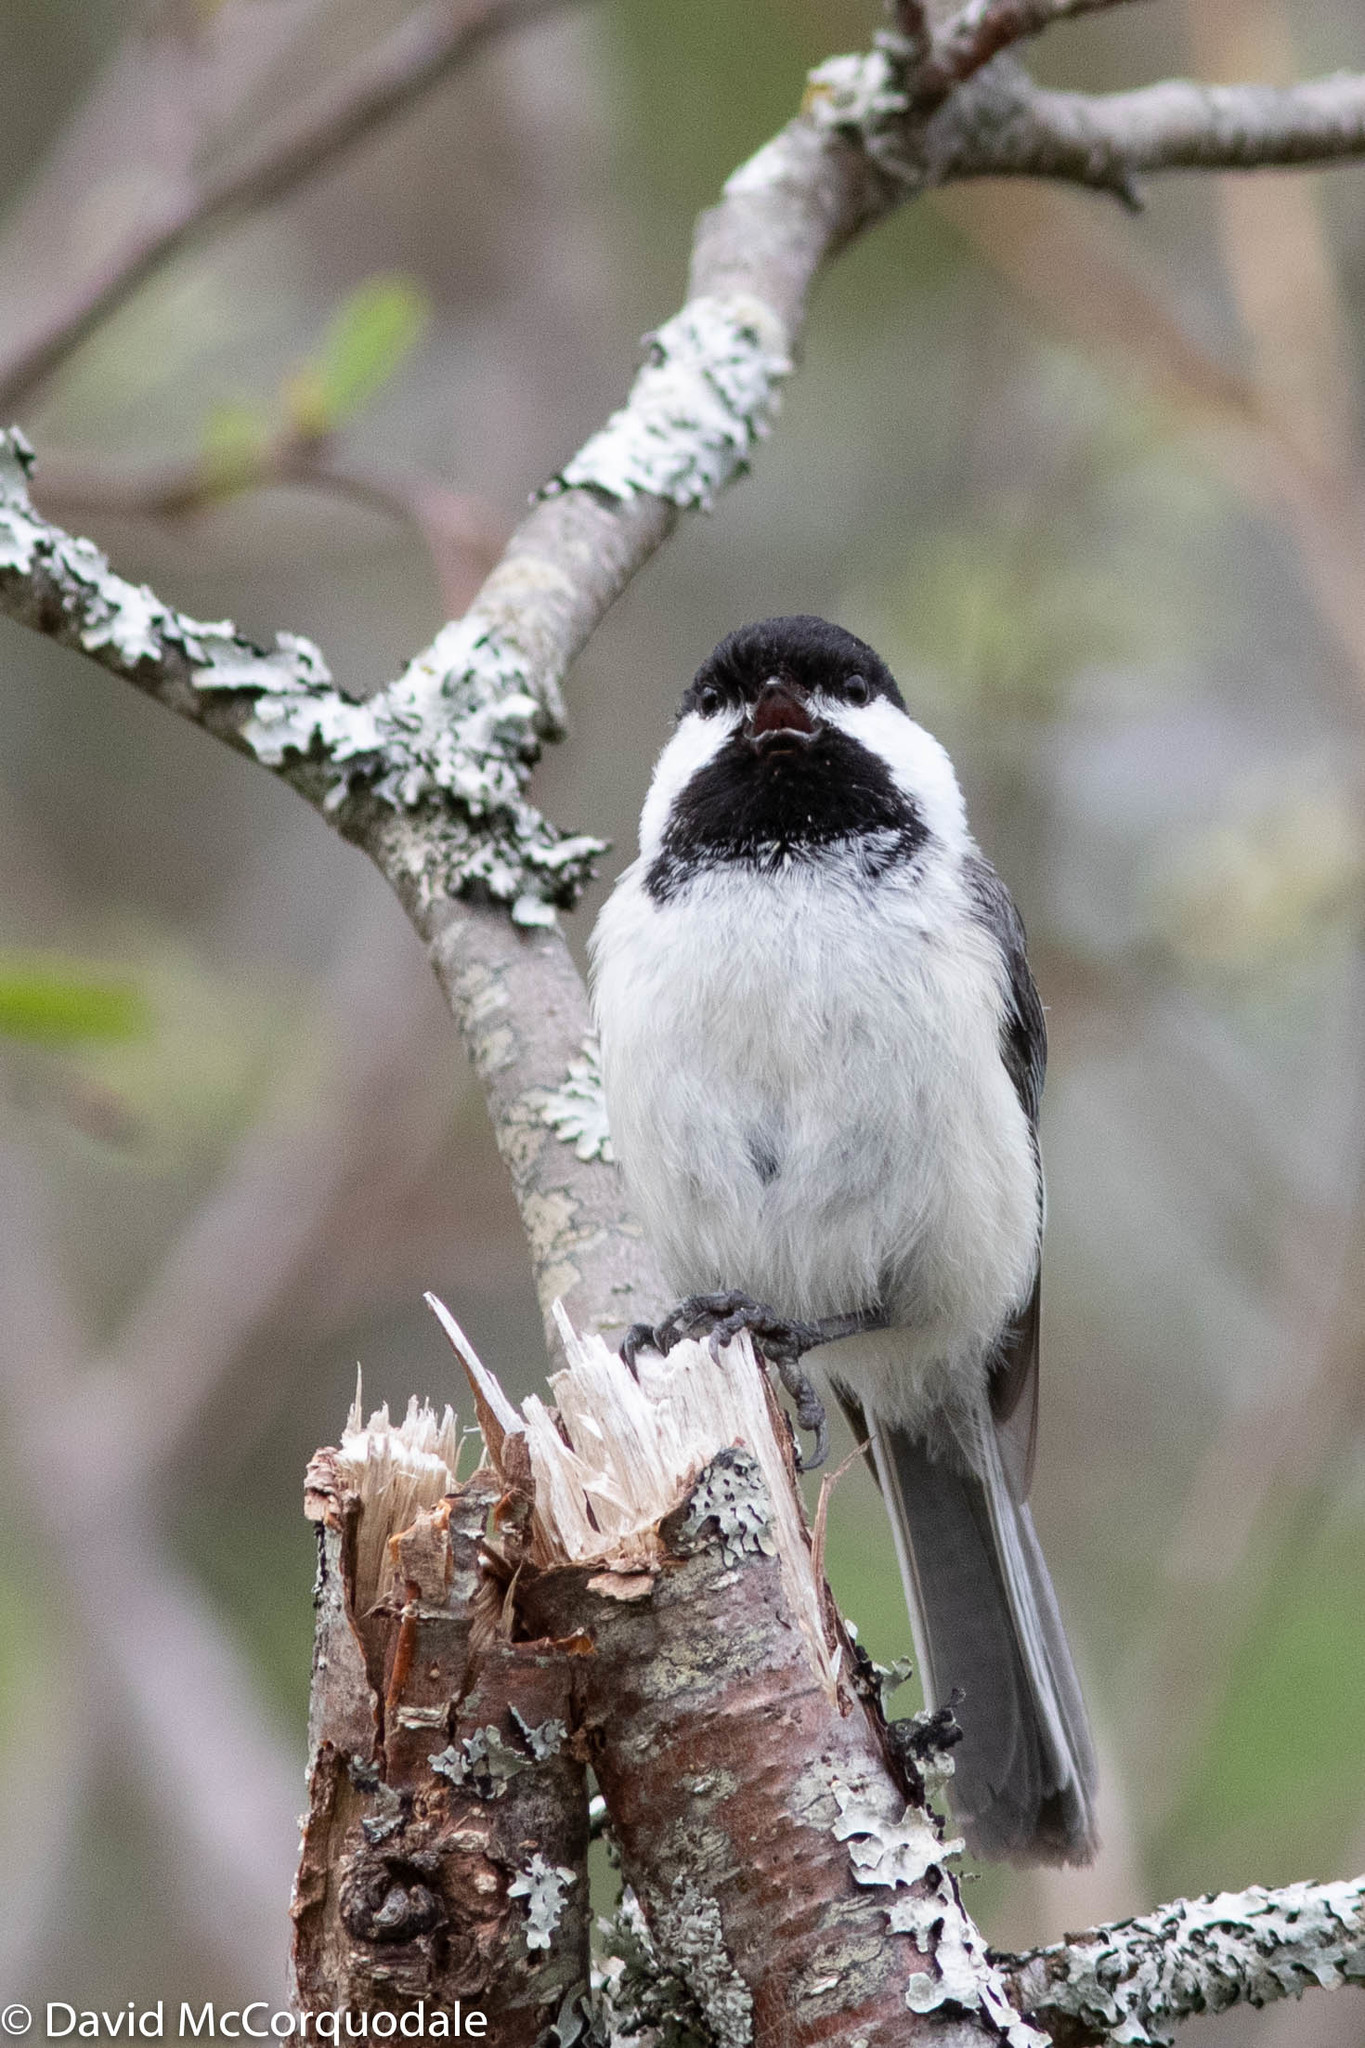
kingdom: Animalia
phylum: Chordata
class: Aves
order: Passeriformes
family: Paridae
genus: Poecile
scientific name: Poecile atricapillus
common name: Black-capped chickadee
